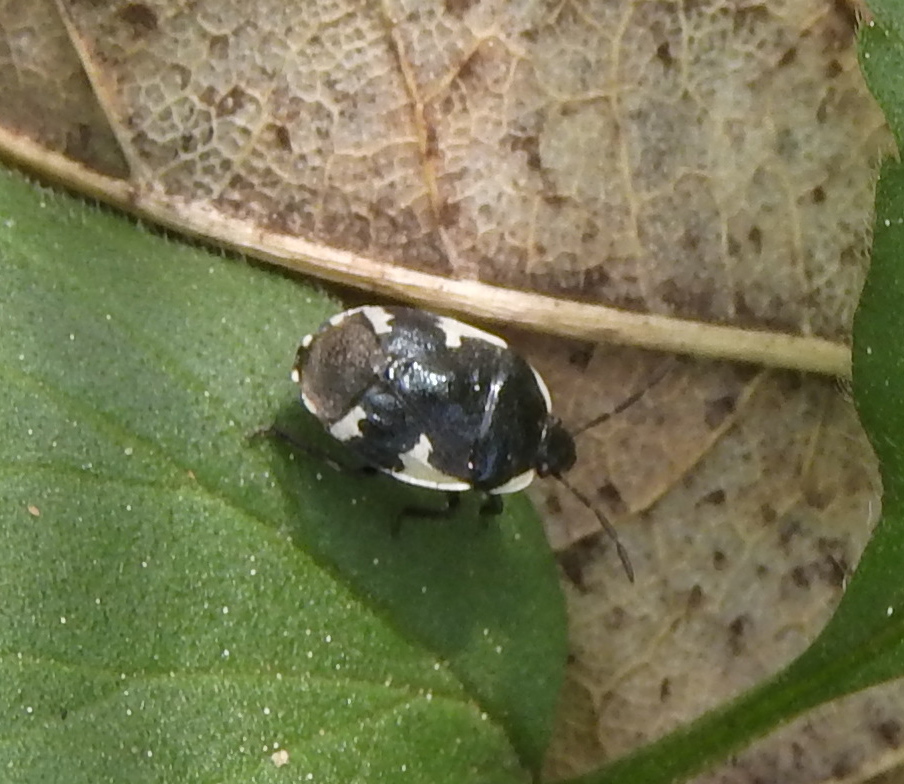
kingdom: Animalia
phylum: Arthropoda
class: Insecta
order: Hemiptera
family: Cydnidae
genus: Tritomegas
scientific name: Tritomegas sexmaculatus
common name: Rambur's pied shieldbug
